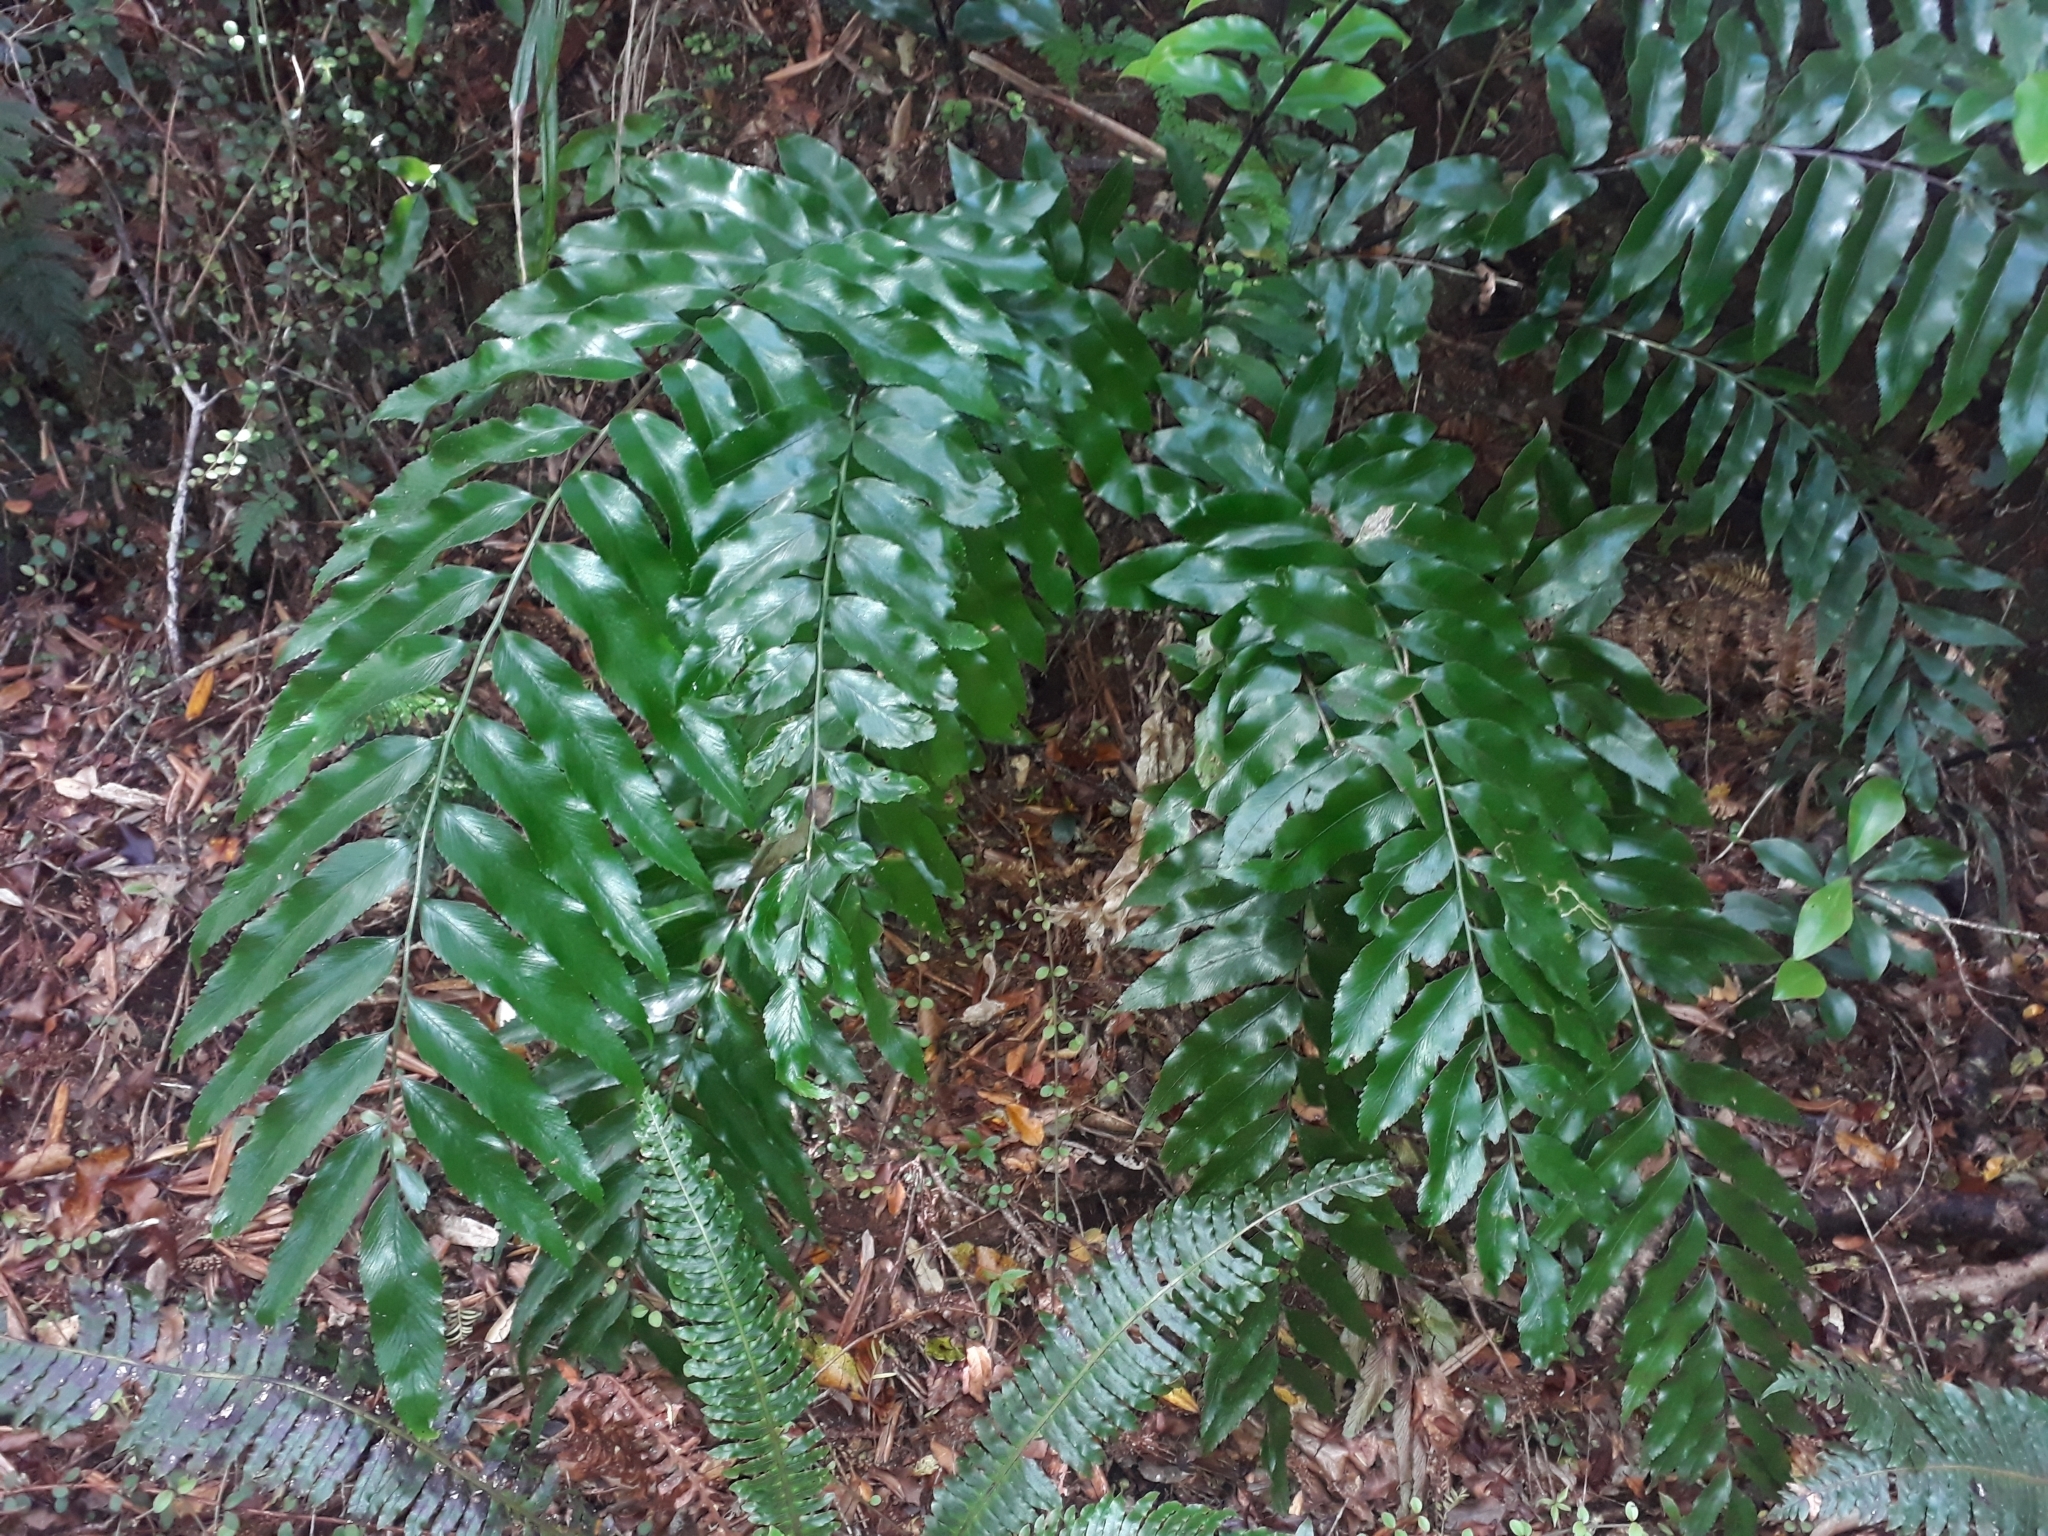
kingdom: Plantae
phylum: Tracheophyta
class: Polypodiopsida
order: Polypodiales
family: Aspleniaceae
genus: Asplenium
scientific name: Asplenium oblongifolium
